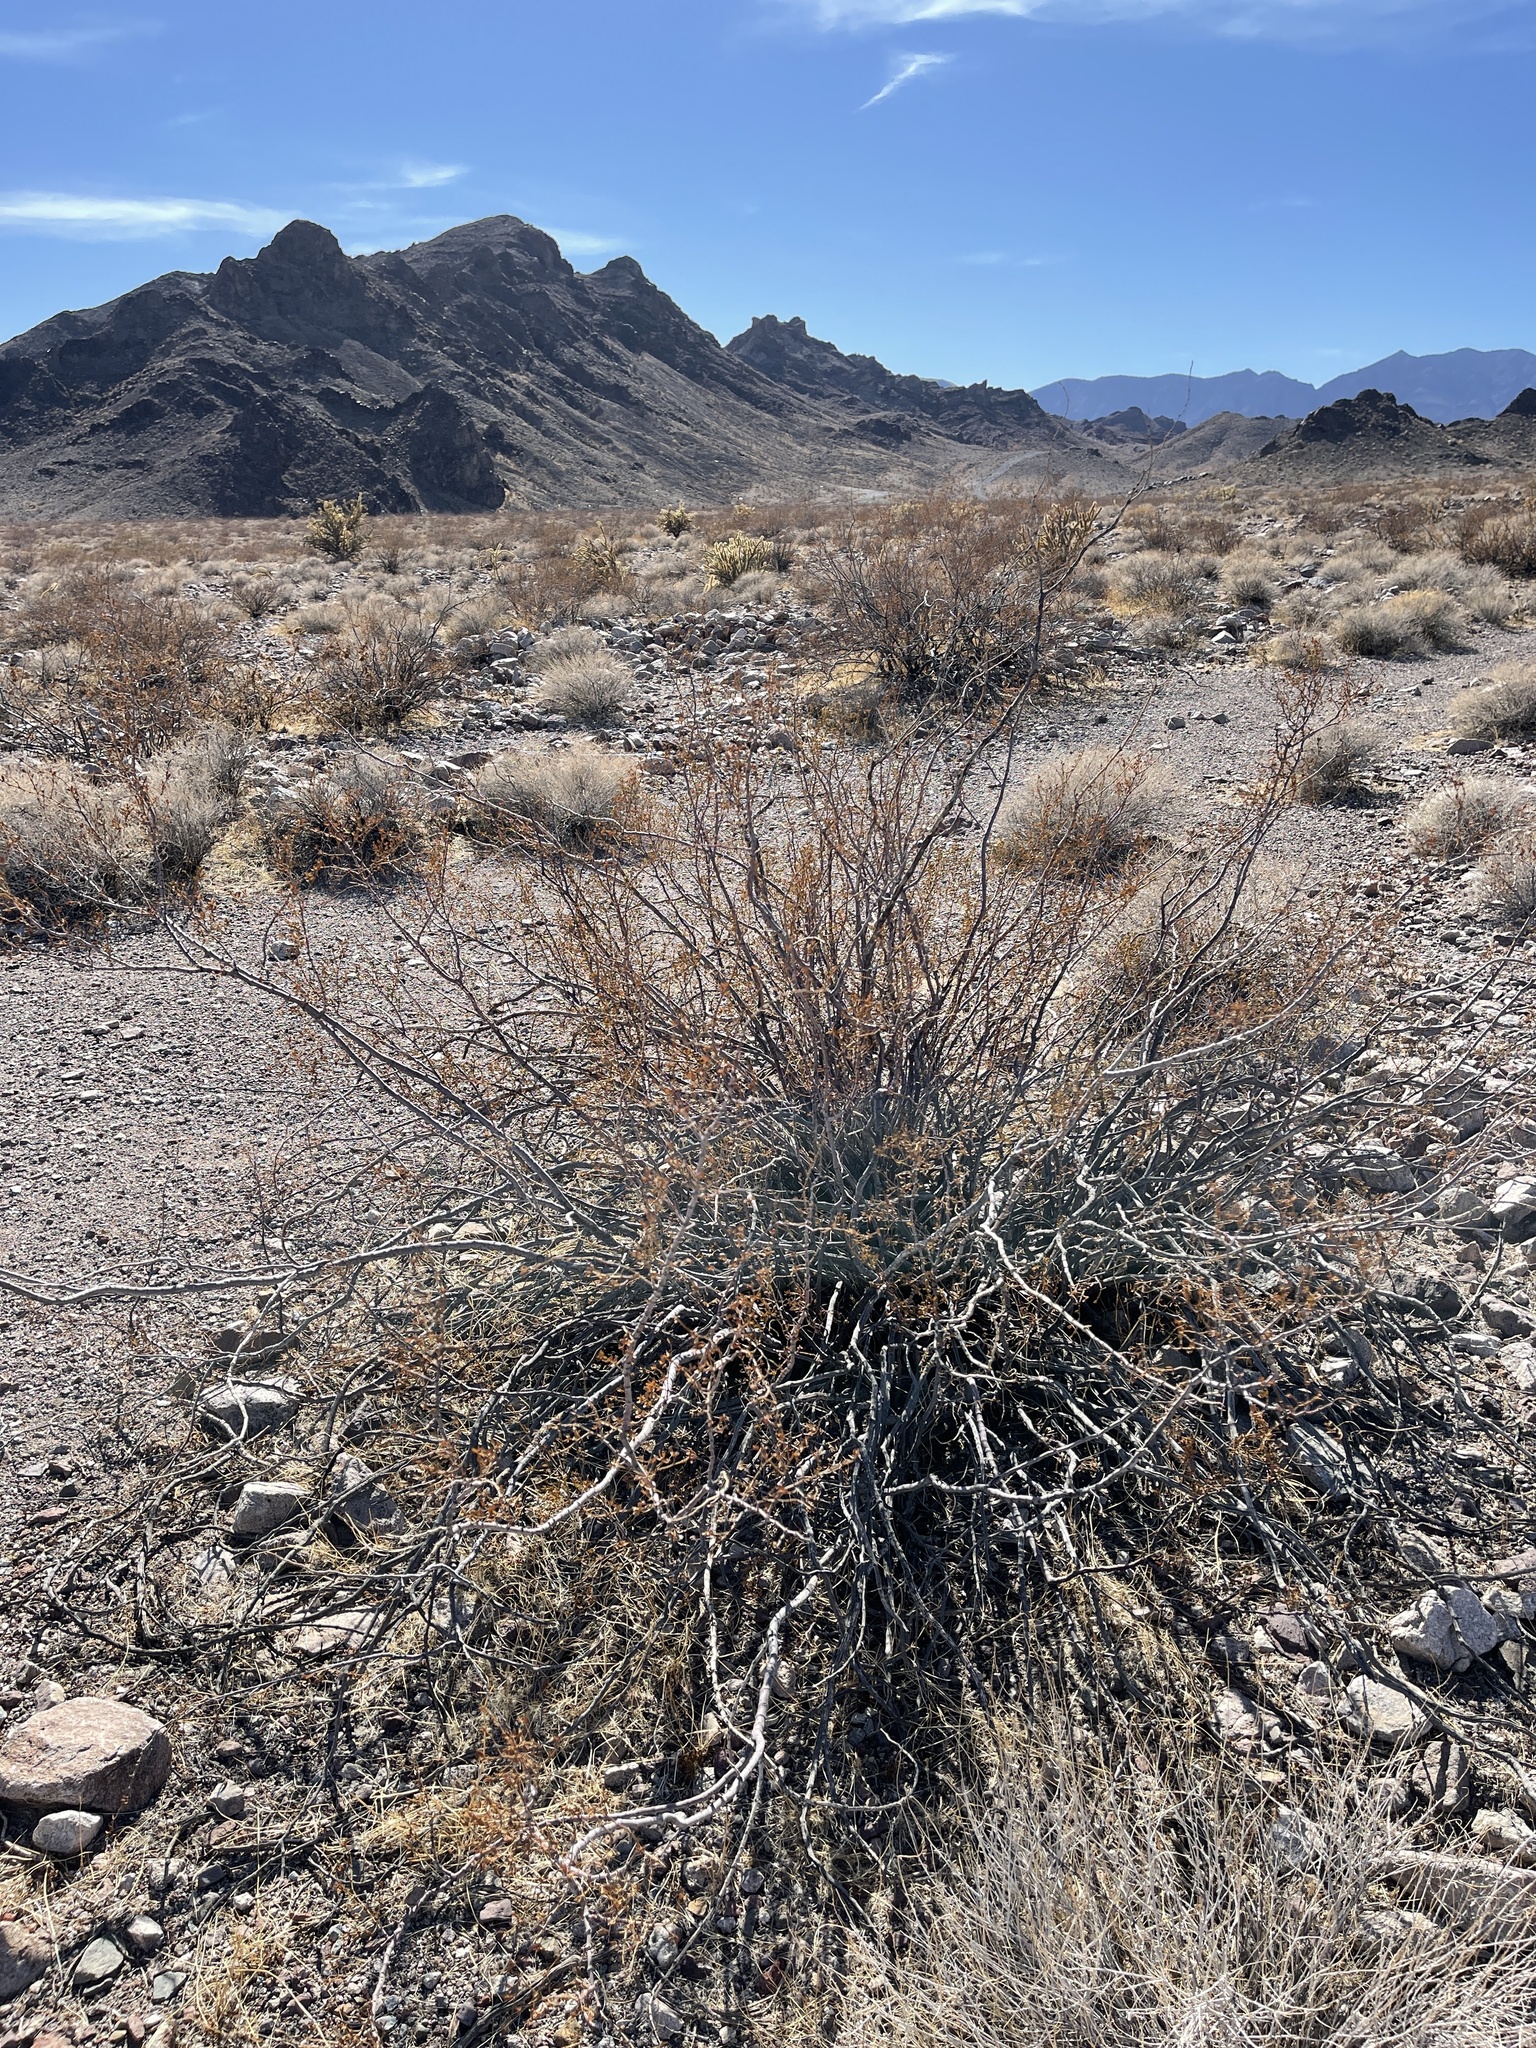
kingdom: Plantae
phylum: Tracheophyta
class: Magnoliopsida
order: Zygophyllales
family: Zygophyllaceae
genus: Larrea
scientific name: Larrea tridentata
